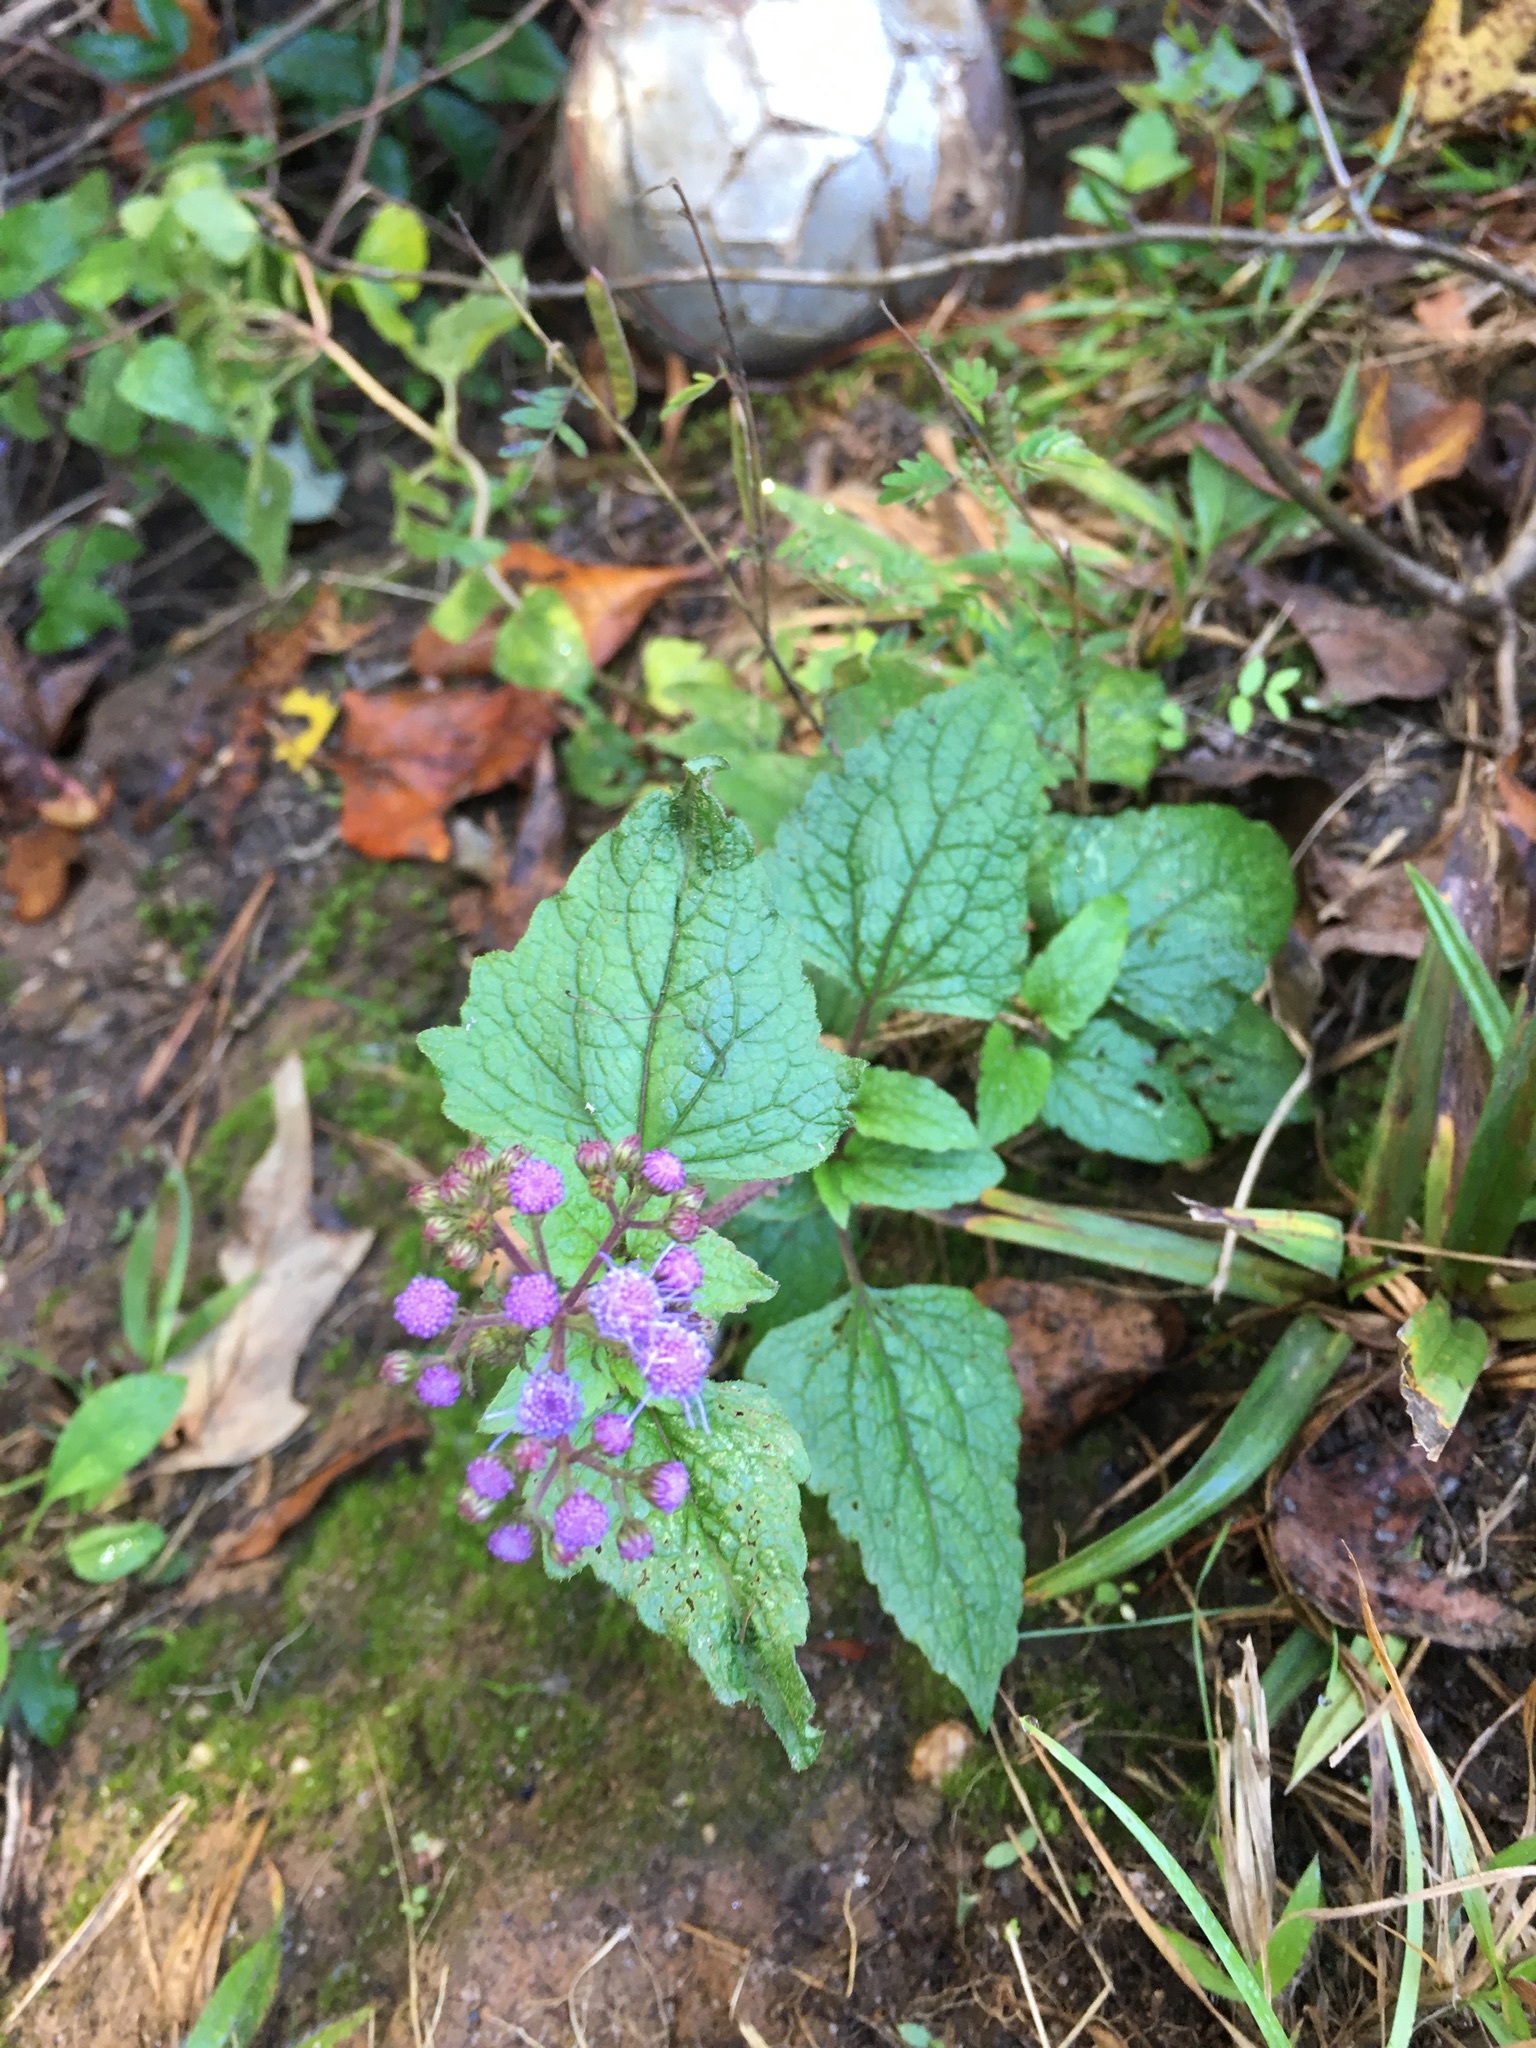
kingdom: Plantae
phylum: Tracheophyta
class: Magnoliopsida
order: Asterales
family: Asteraceae
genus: Conoclinium
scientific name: Conoclinium coelestinum
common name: Blue mistflower
